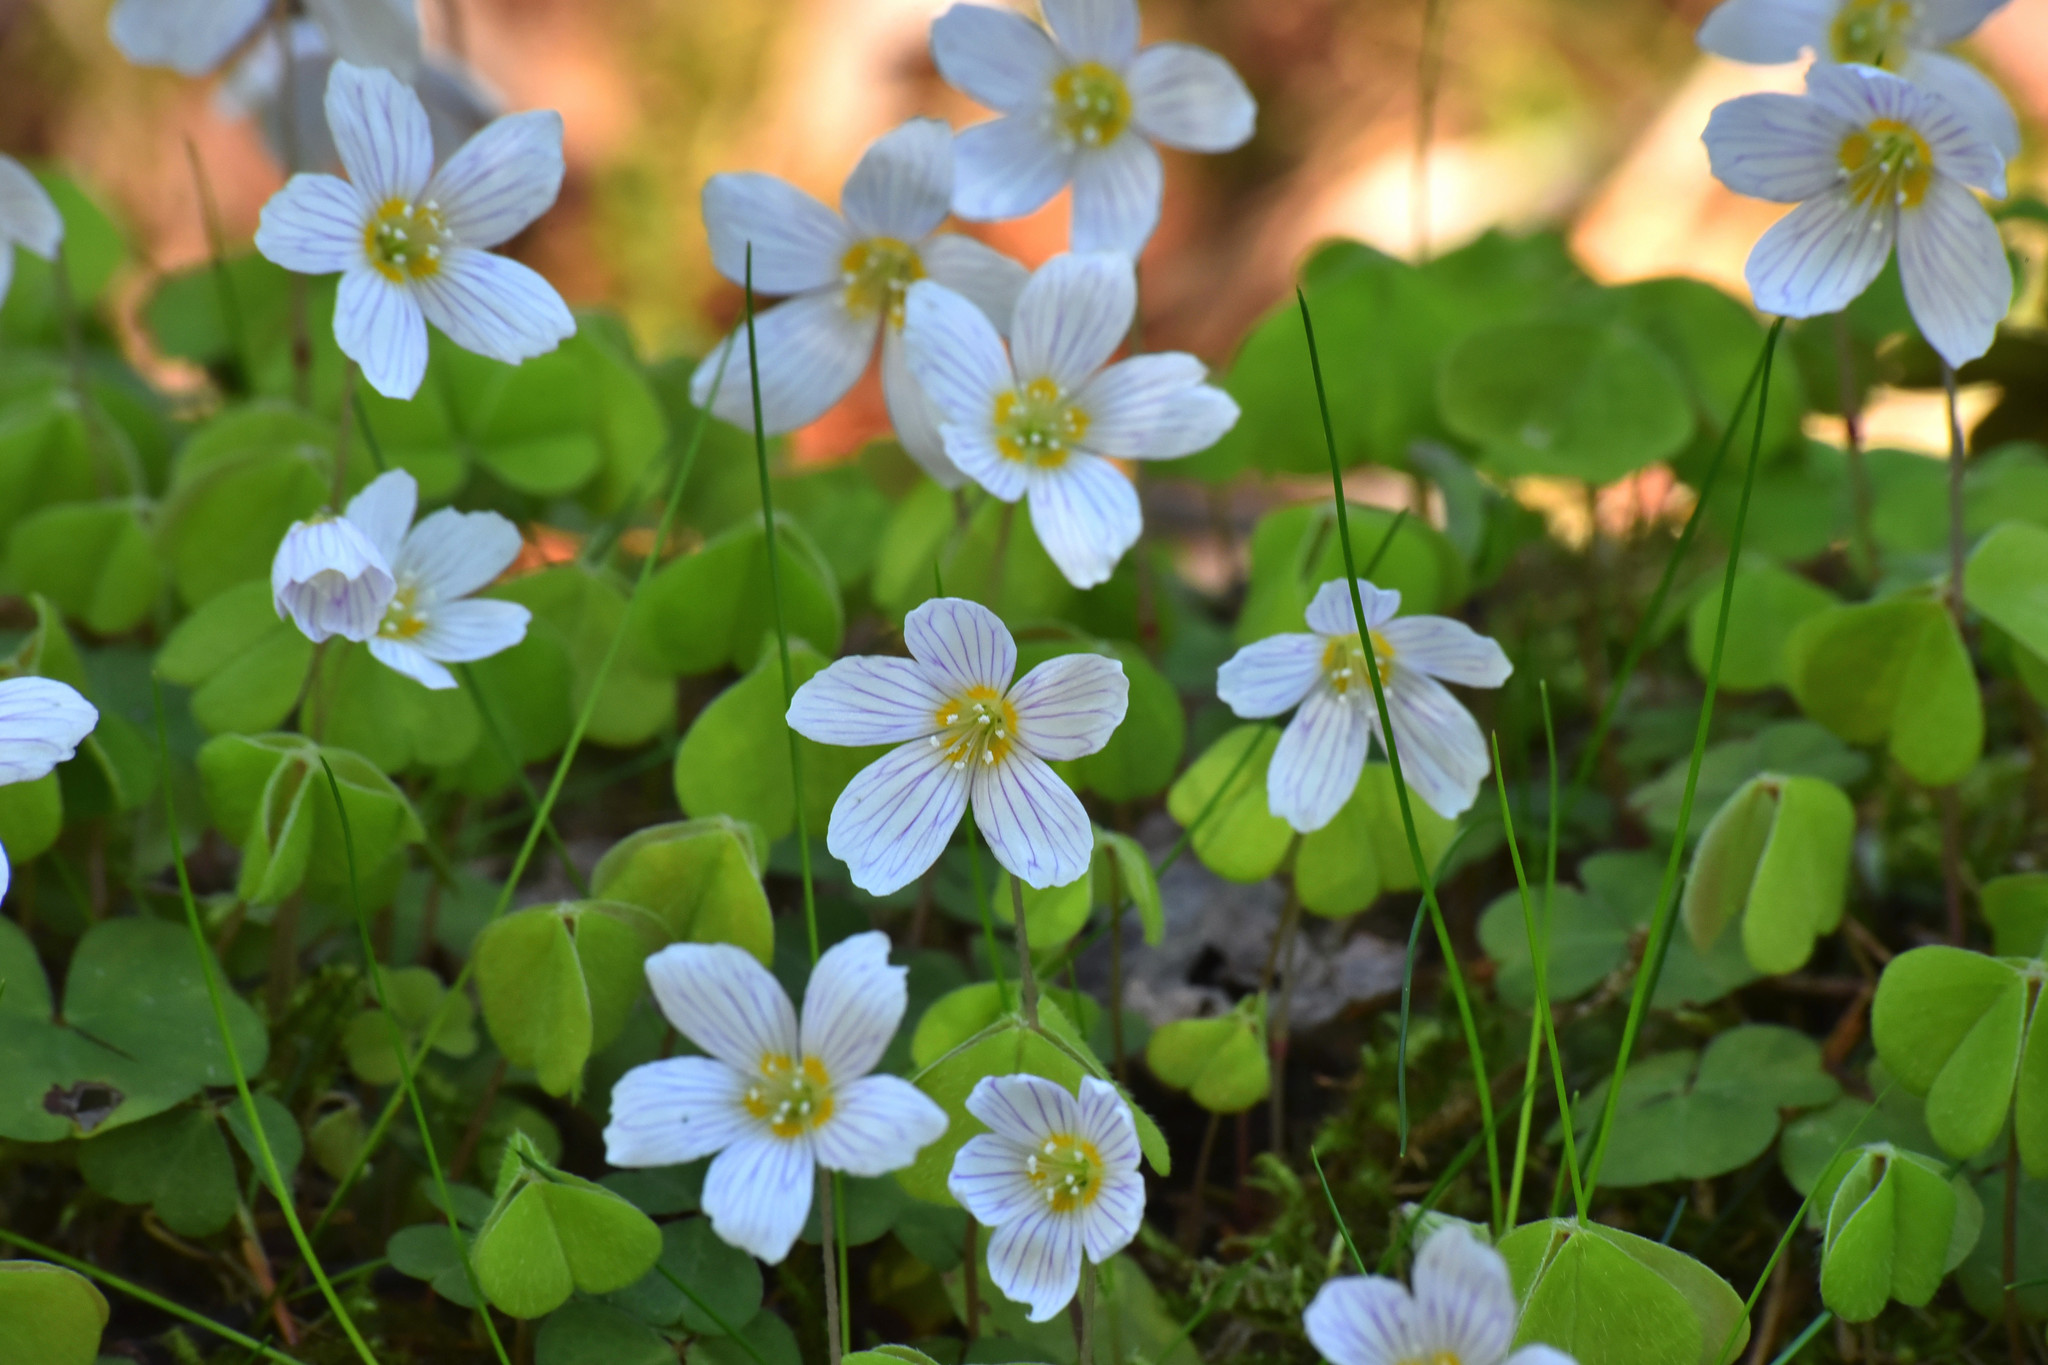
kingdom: Plantae
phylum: Tracheophyta
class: Magnoliopsida
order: Oxalidales
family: Oxalidaceae
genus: Oxalis
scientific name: Oxalis acetosella
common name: Wood-sorrel
